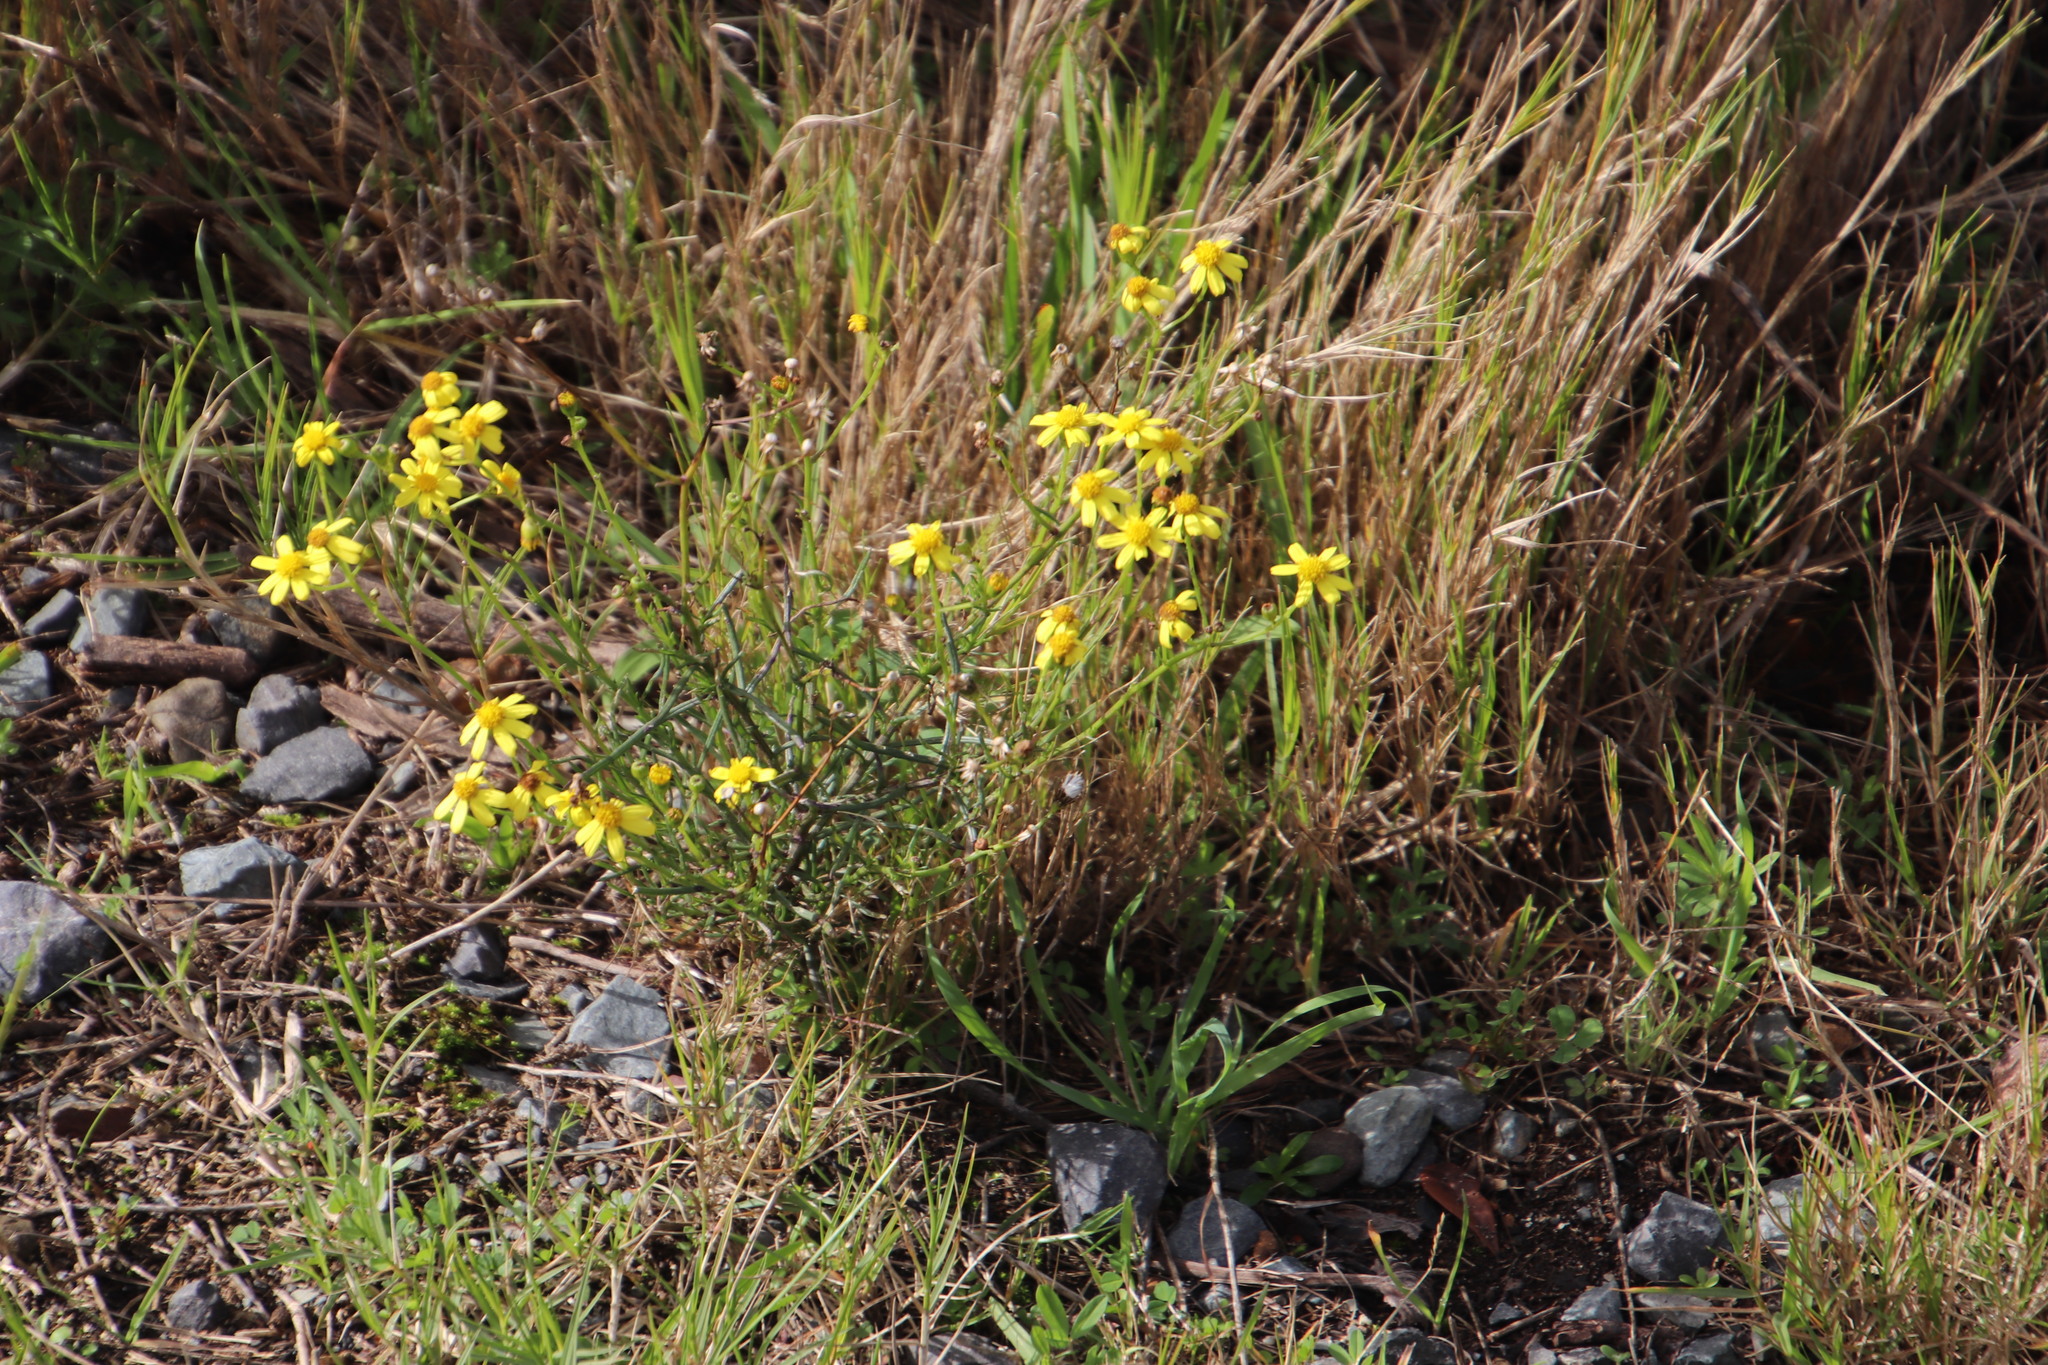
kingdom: Plantae
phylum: Tracheophyta
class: Magnoliopsida
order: Asterales
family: Asteraceae
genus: Senecio
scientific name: Senecio burchellii
